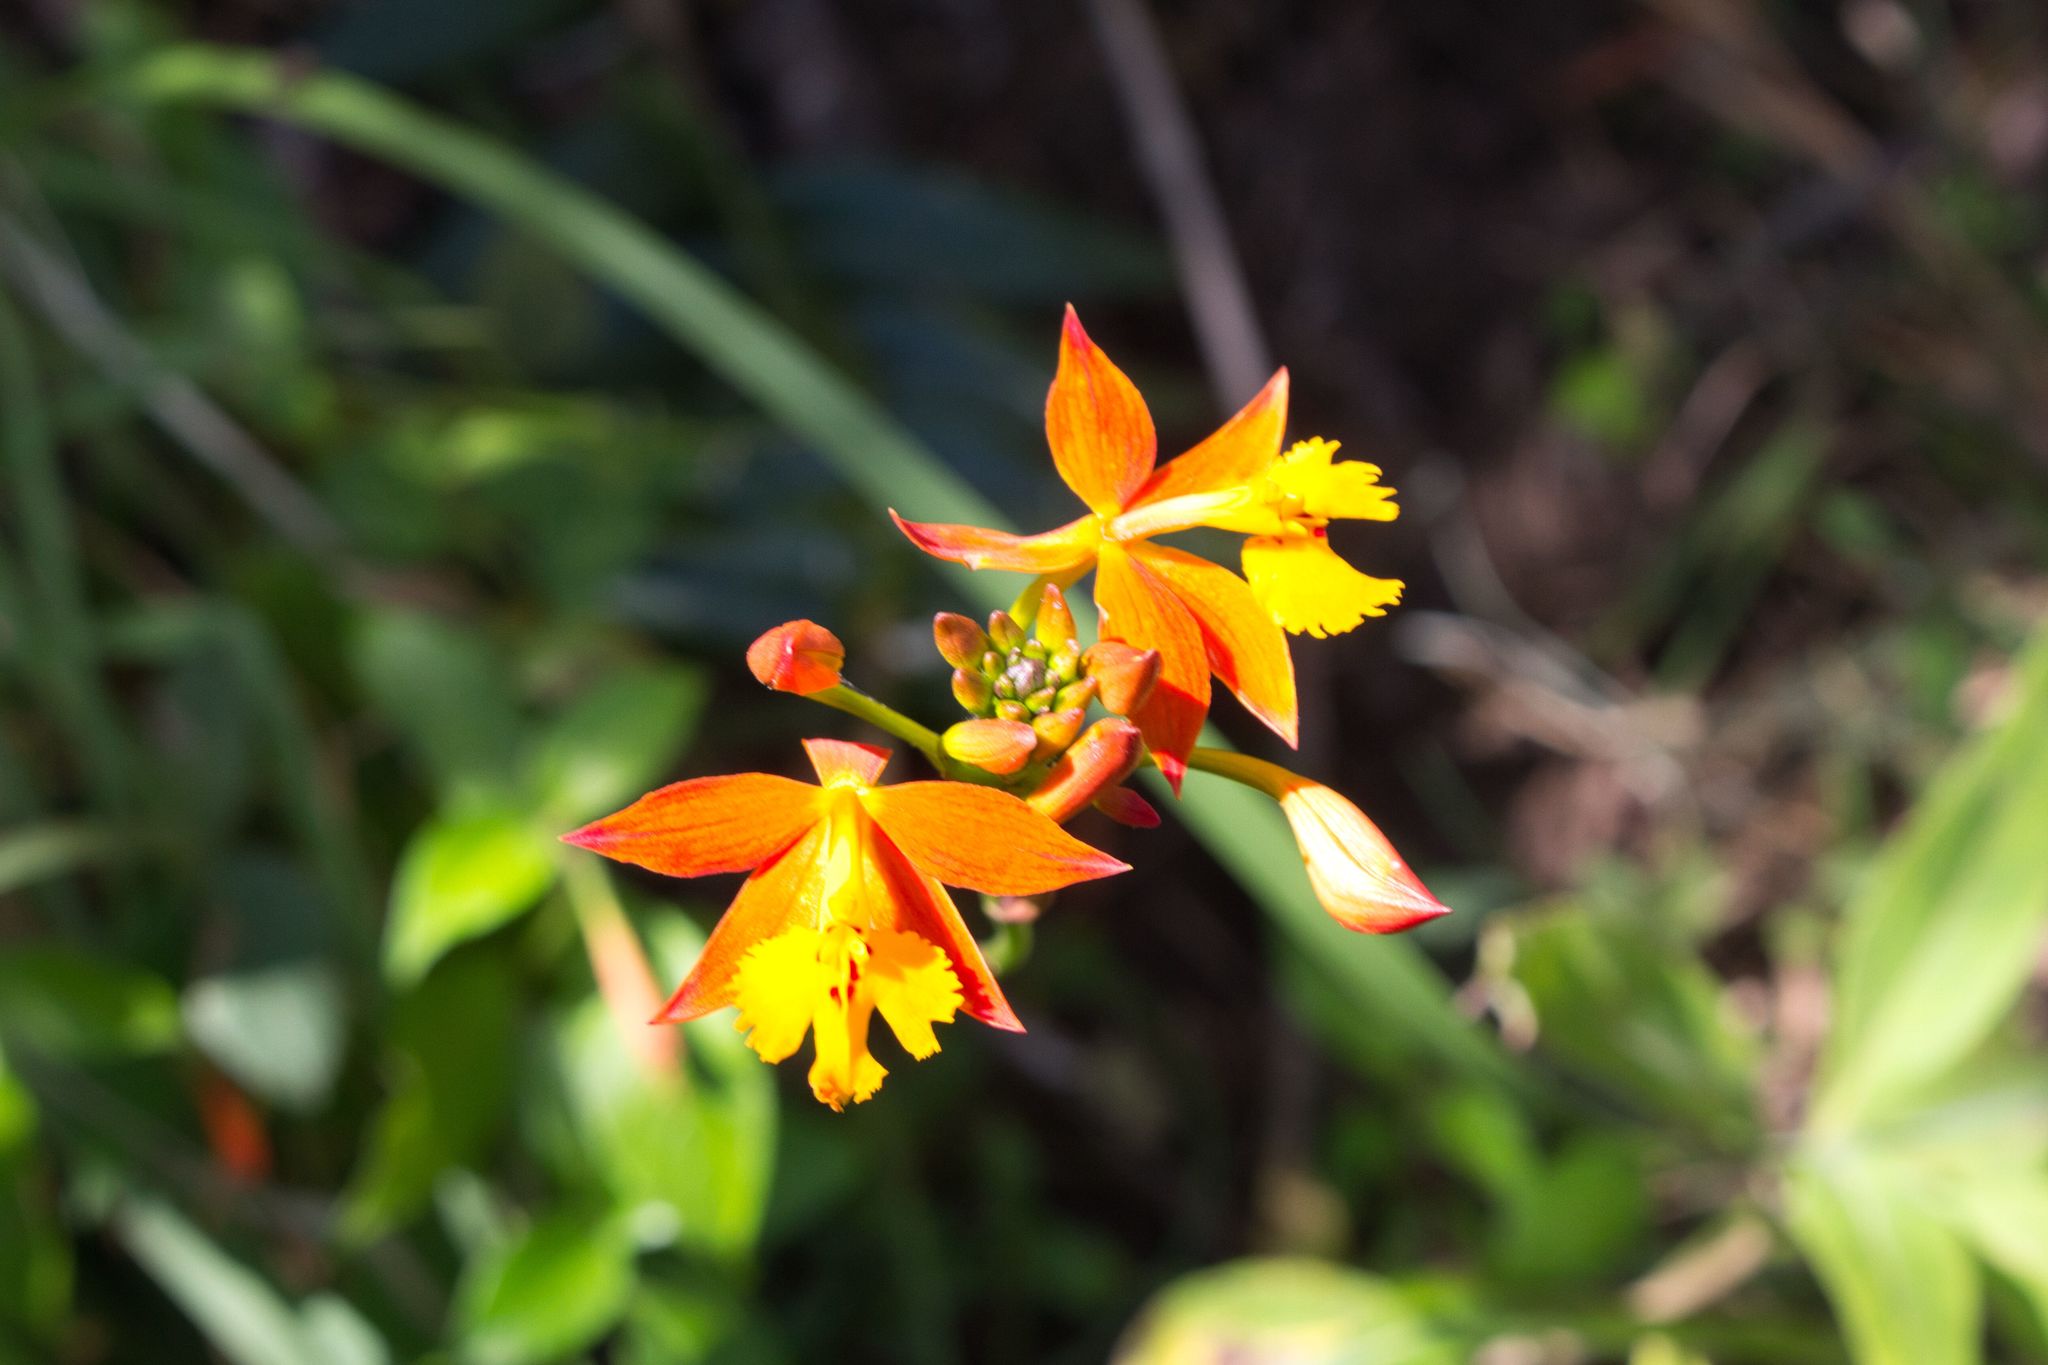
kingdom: Plantae
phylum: Tracheophyta
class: Liliopsida
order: Asparagales
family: Orchidaceae
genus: Epidendrum
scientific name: Epidendrum radicans
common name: Fire star orchid
